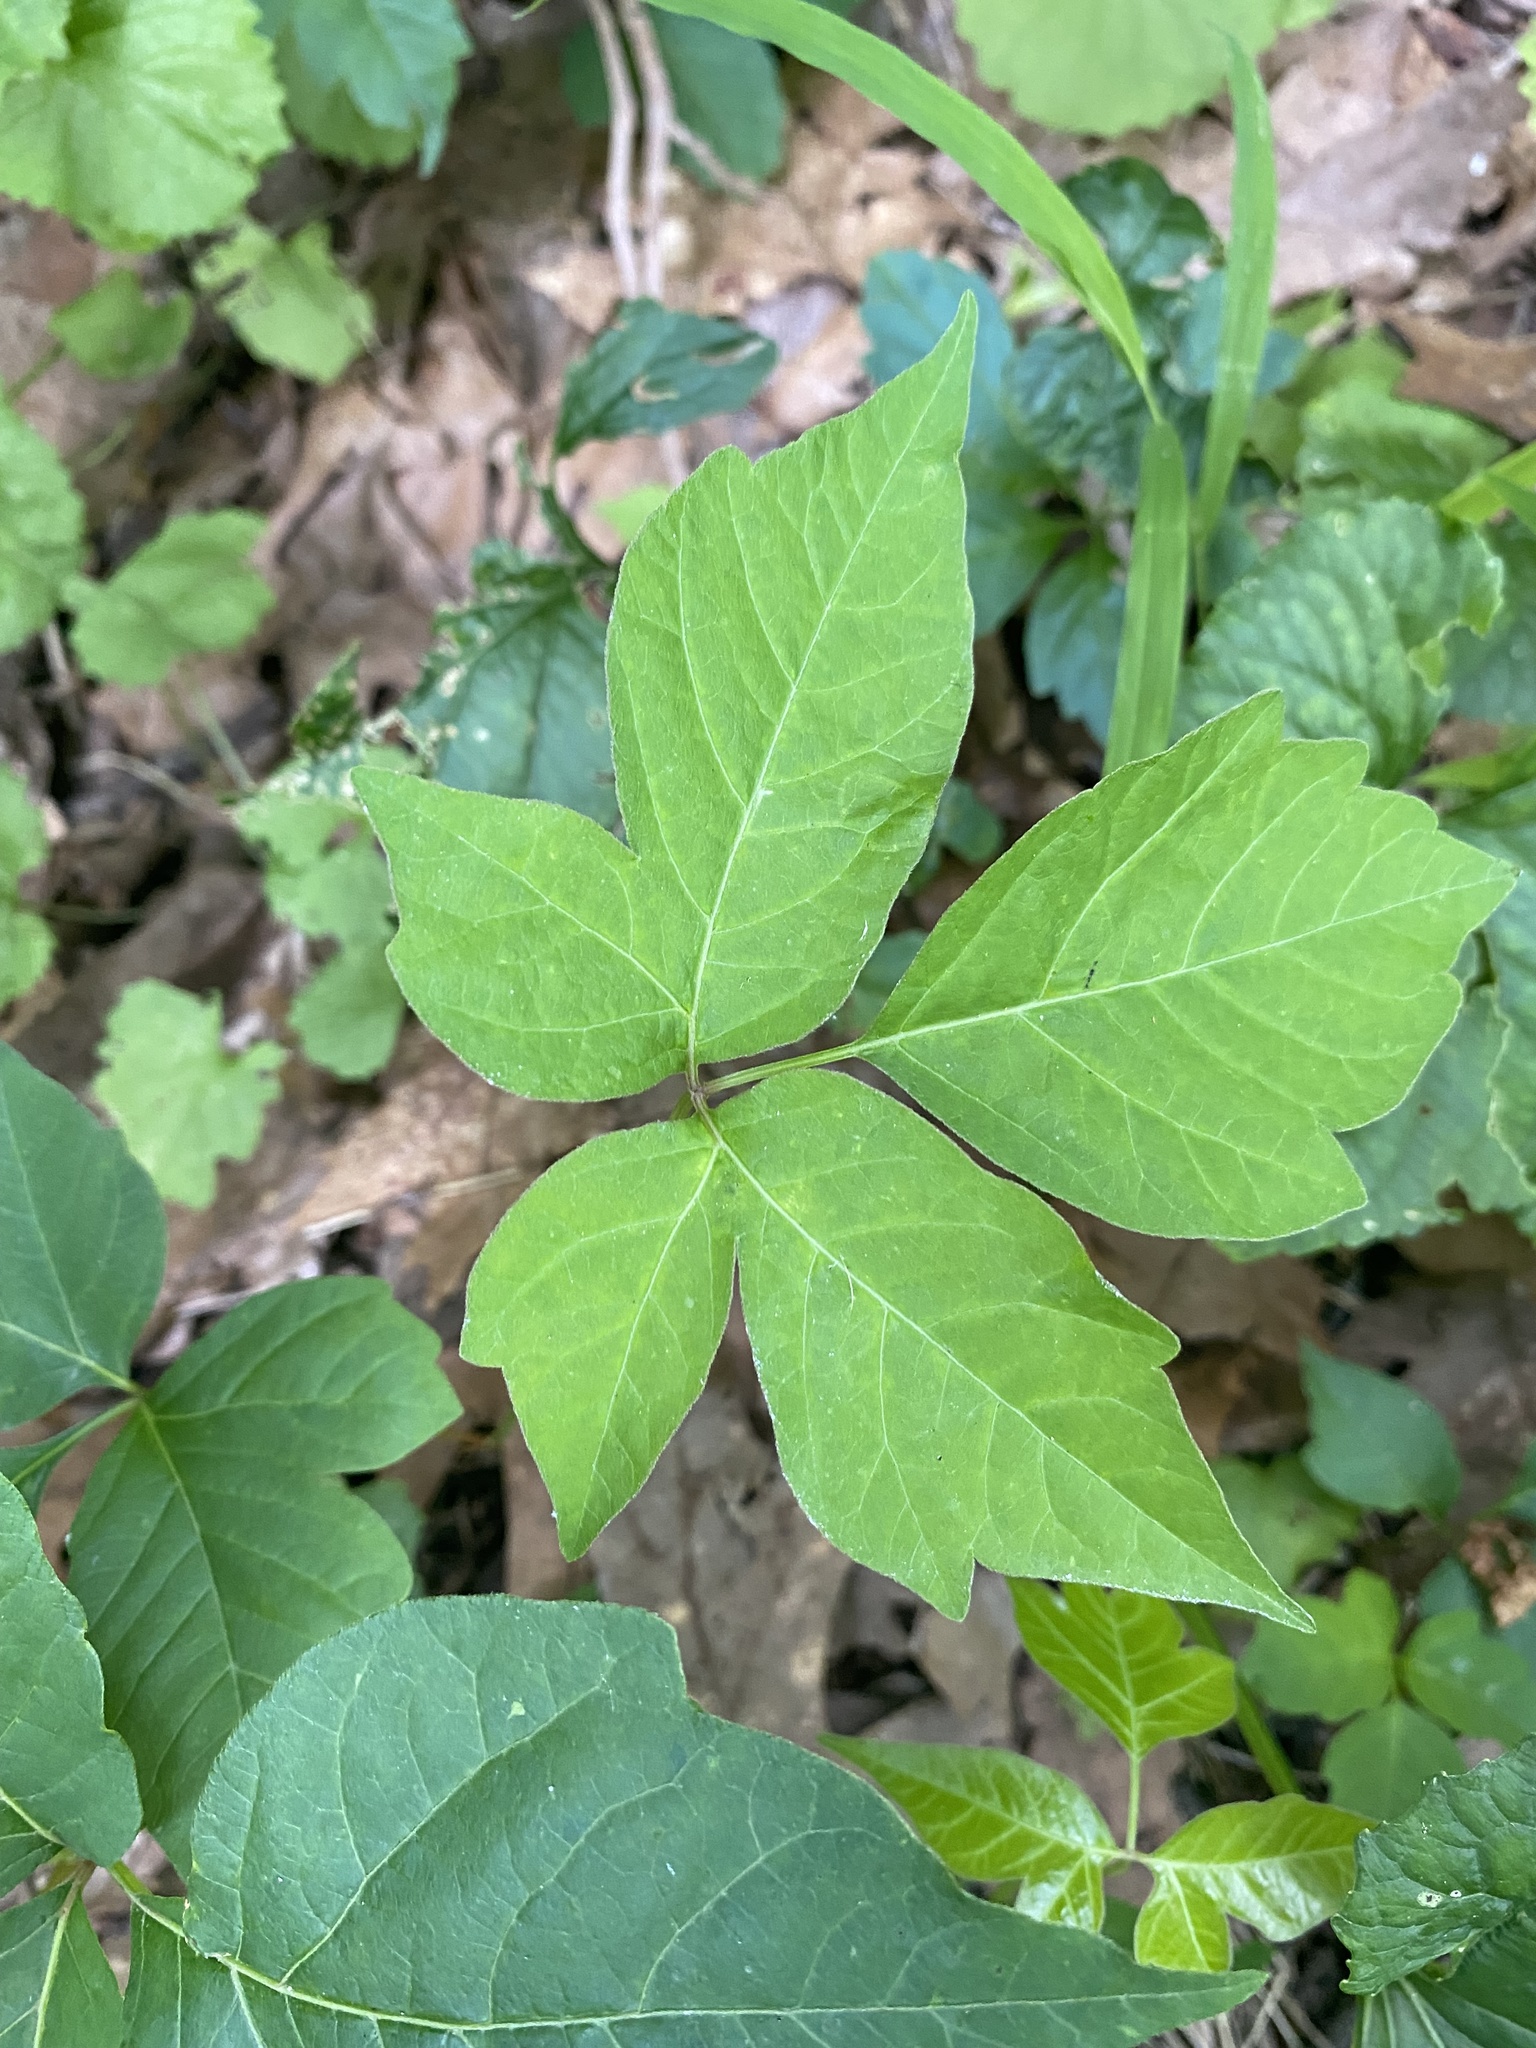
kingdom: Plantae
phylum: Tracheophyta
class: Magnoliopsida
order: Sapindales
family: Anacardiaceae
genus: Toxicodendron
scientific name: Toxicodendron radicans
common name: Poison ivy
